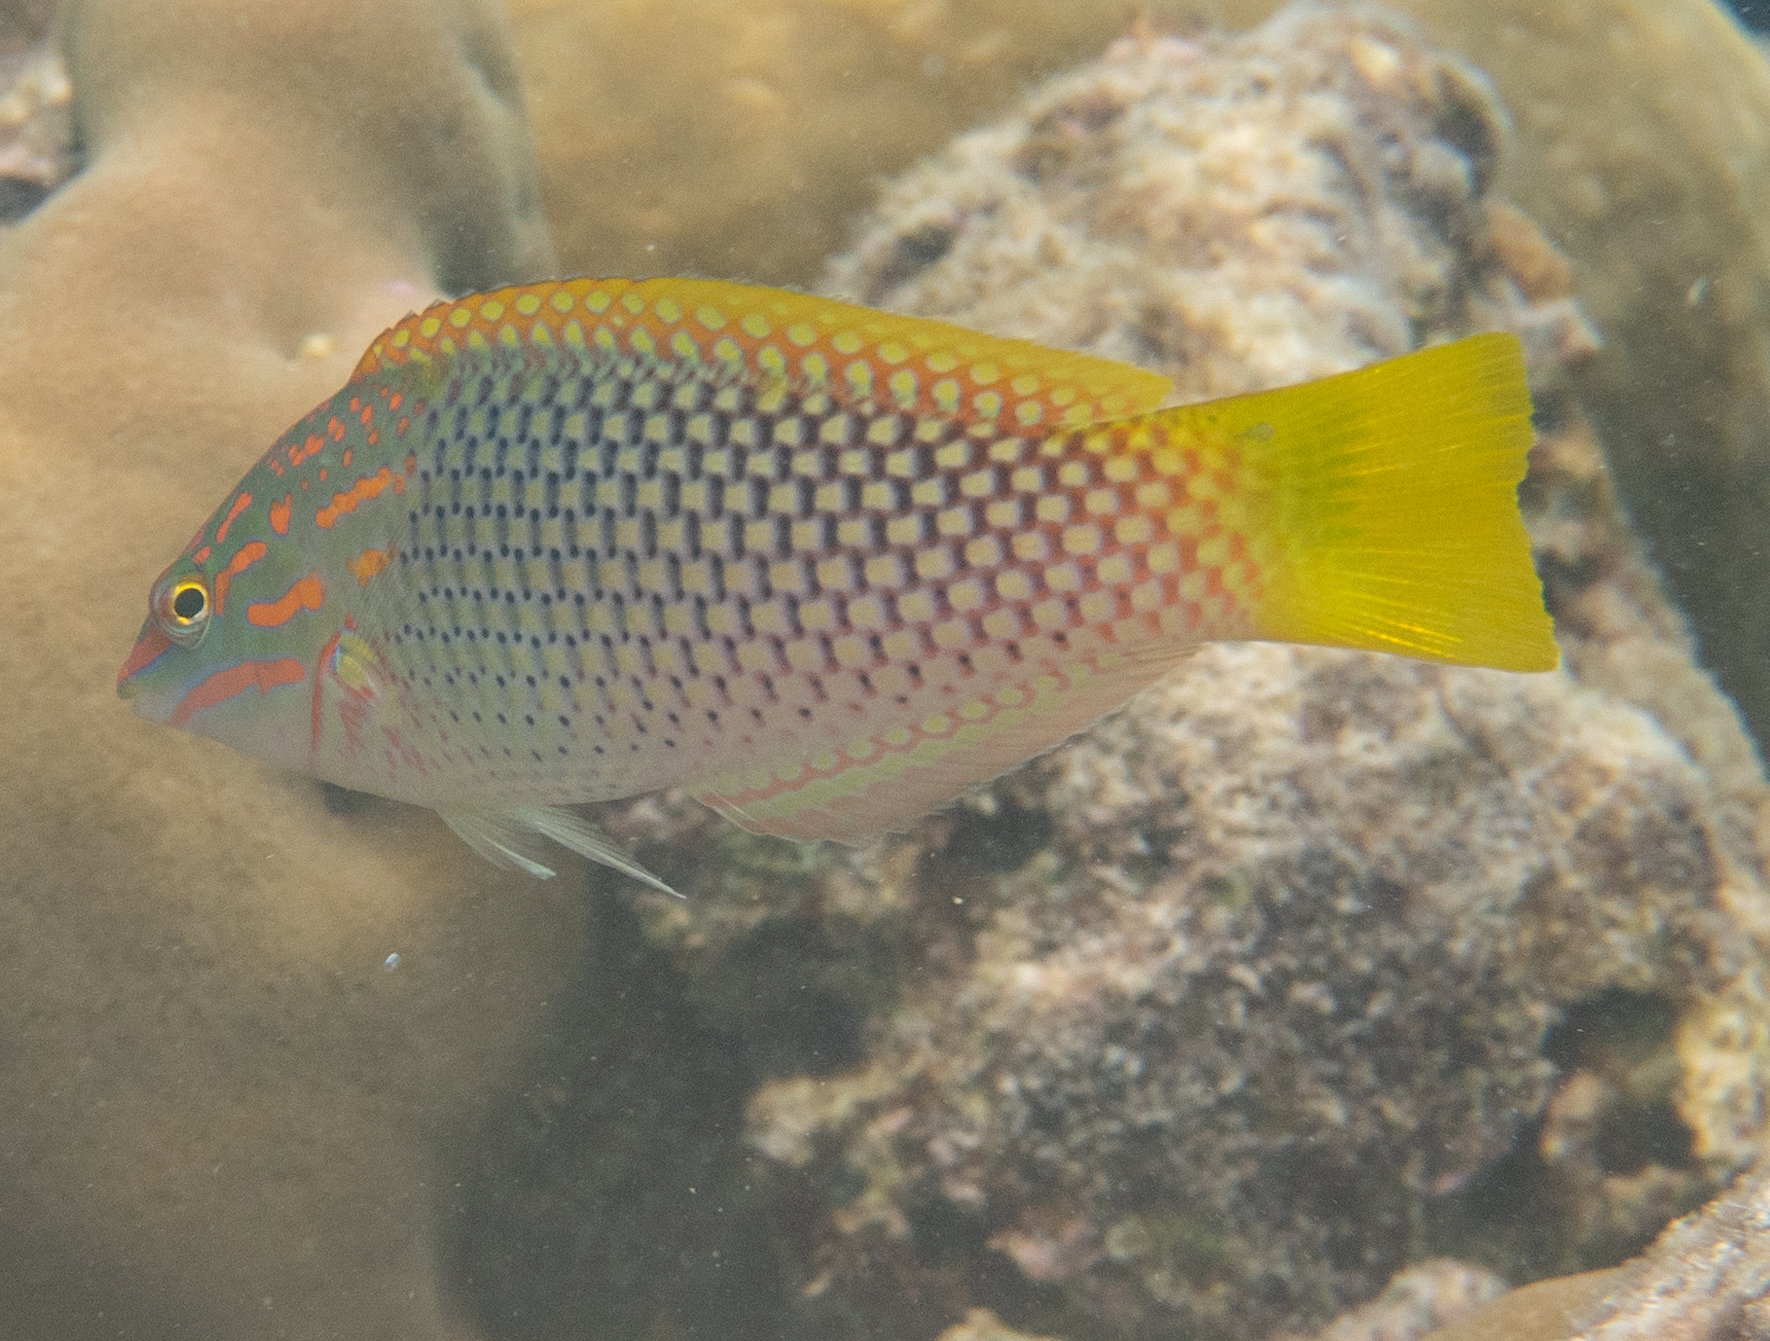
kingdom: Animalia
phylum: Chordata
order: Perciformes
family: Labridae
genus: Halichoeres
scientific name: Halichoeres hortulanus
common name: Checkerboard wrasse
